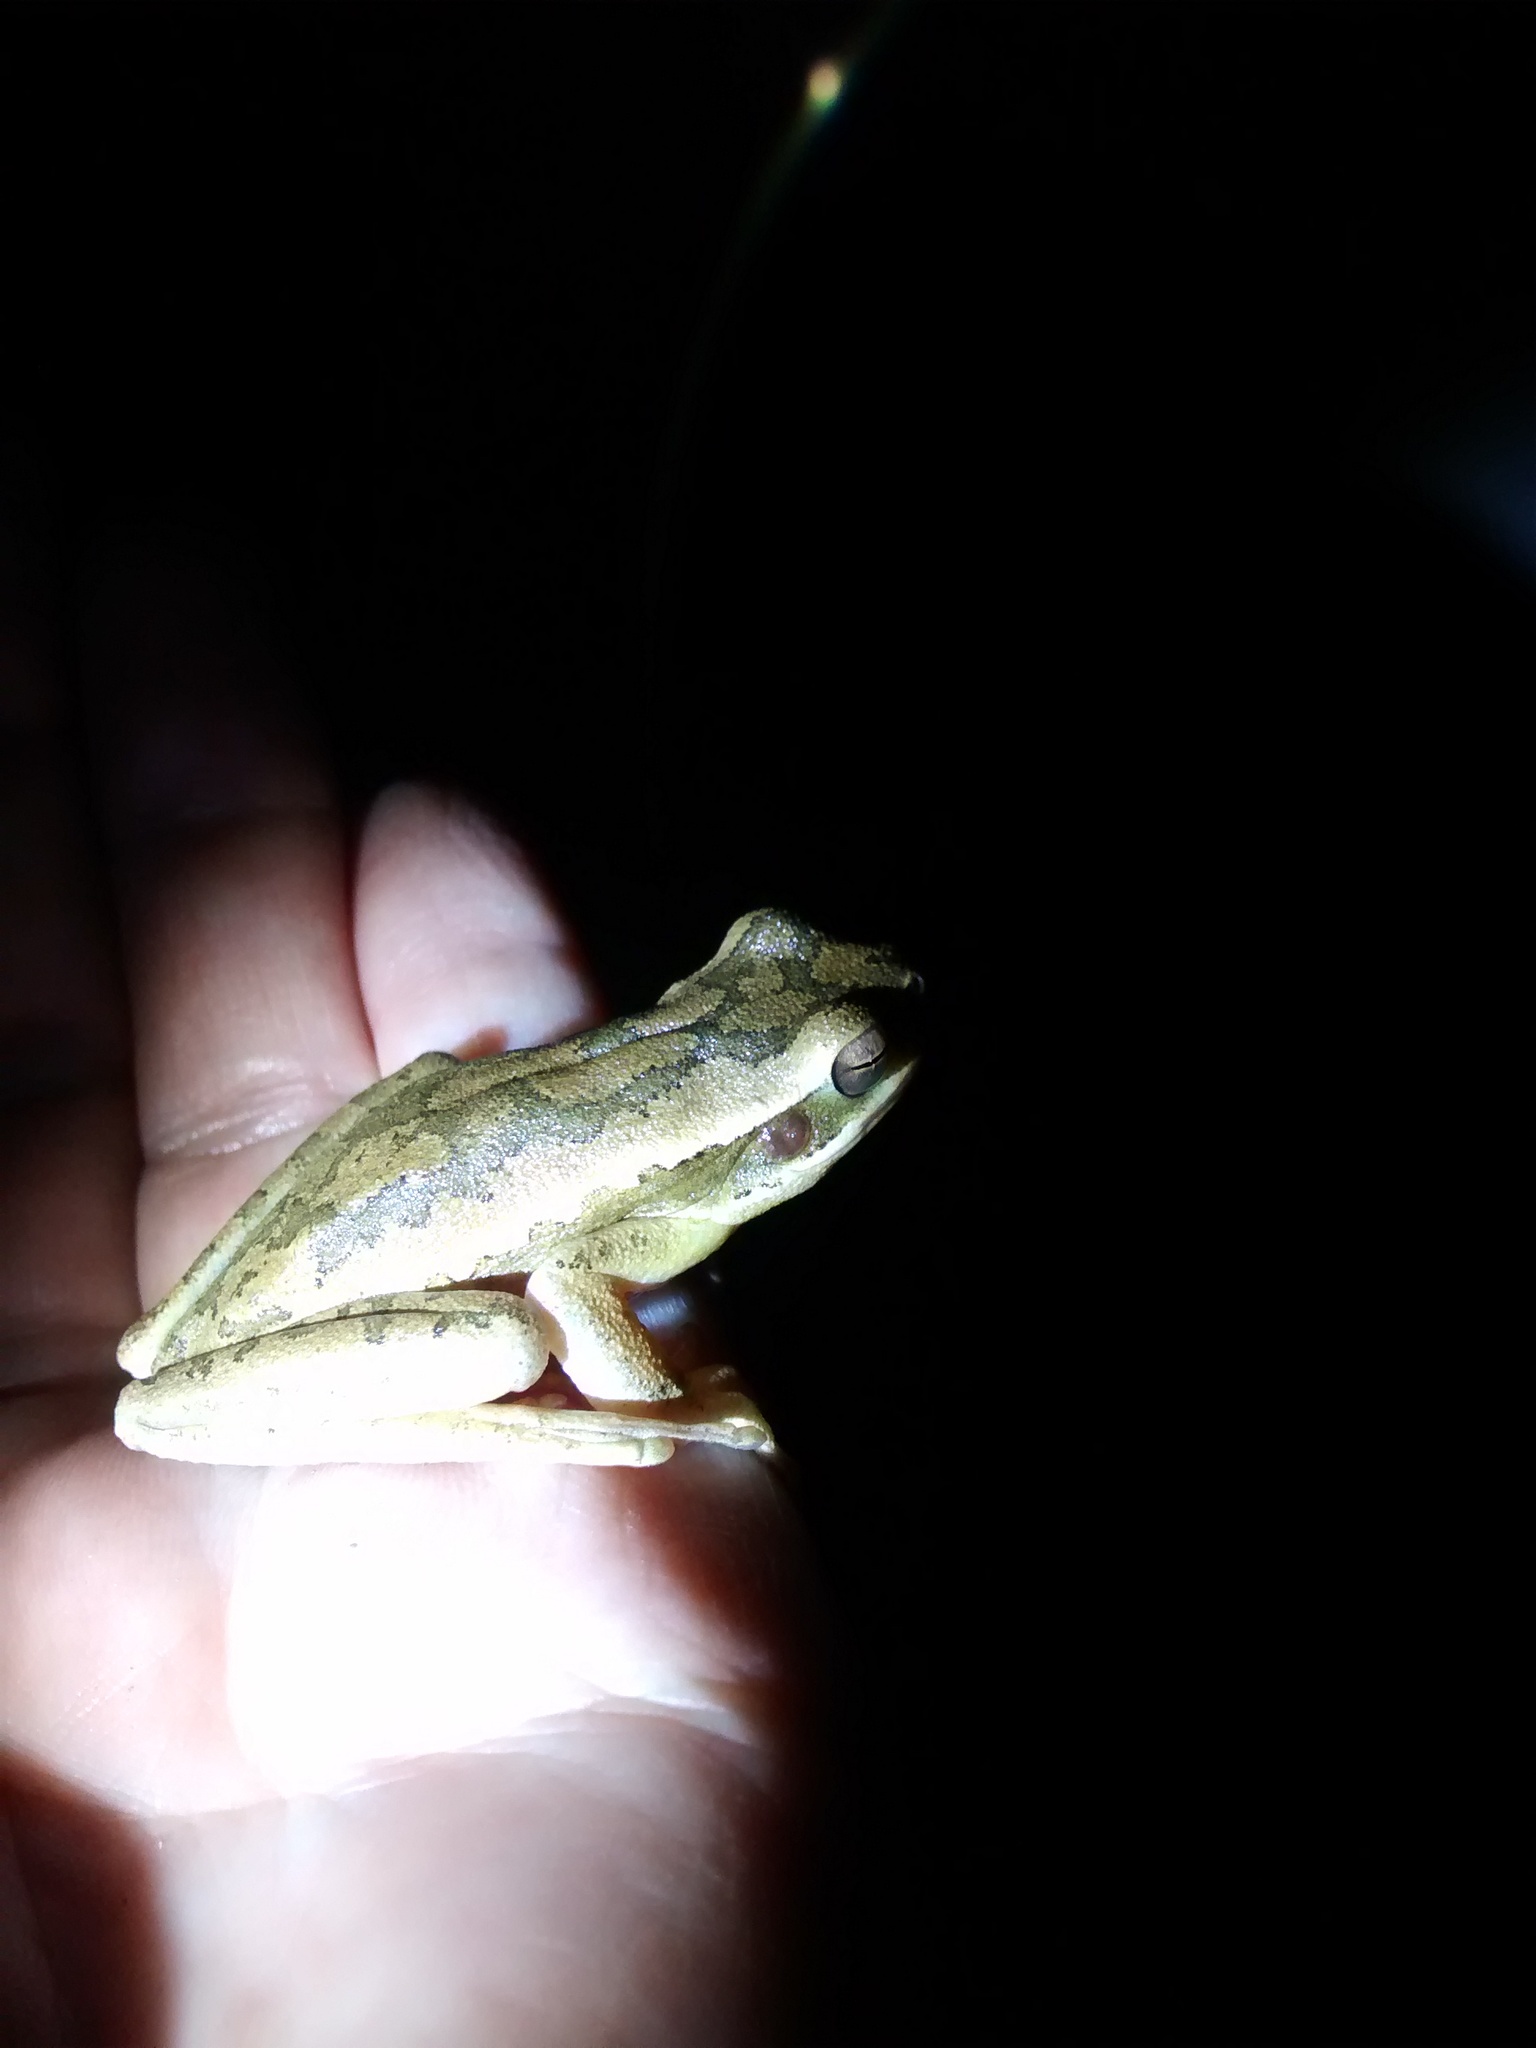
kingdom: Animalia
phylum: Chordata
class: Amphibia
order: Anura
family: Hylidae
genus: Boana
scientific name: Boana pulchella
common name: Montevideo treefrog
